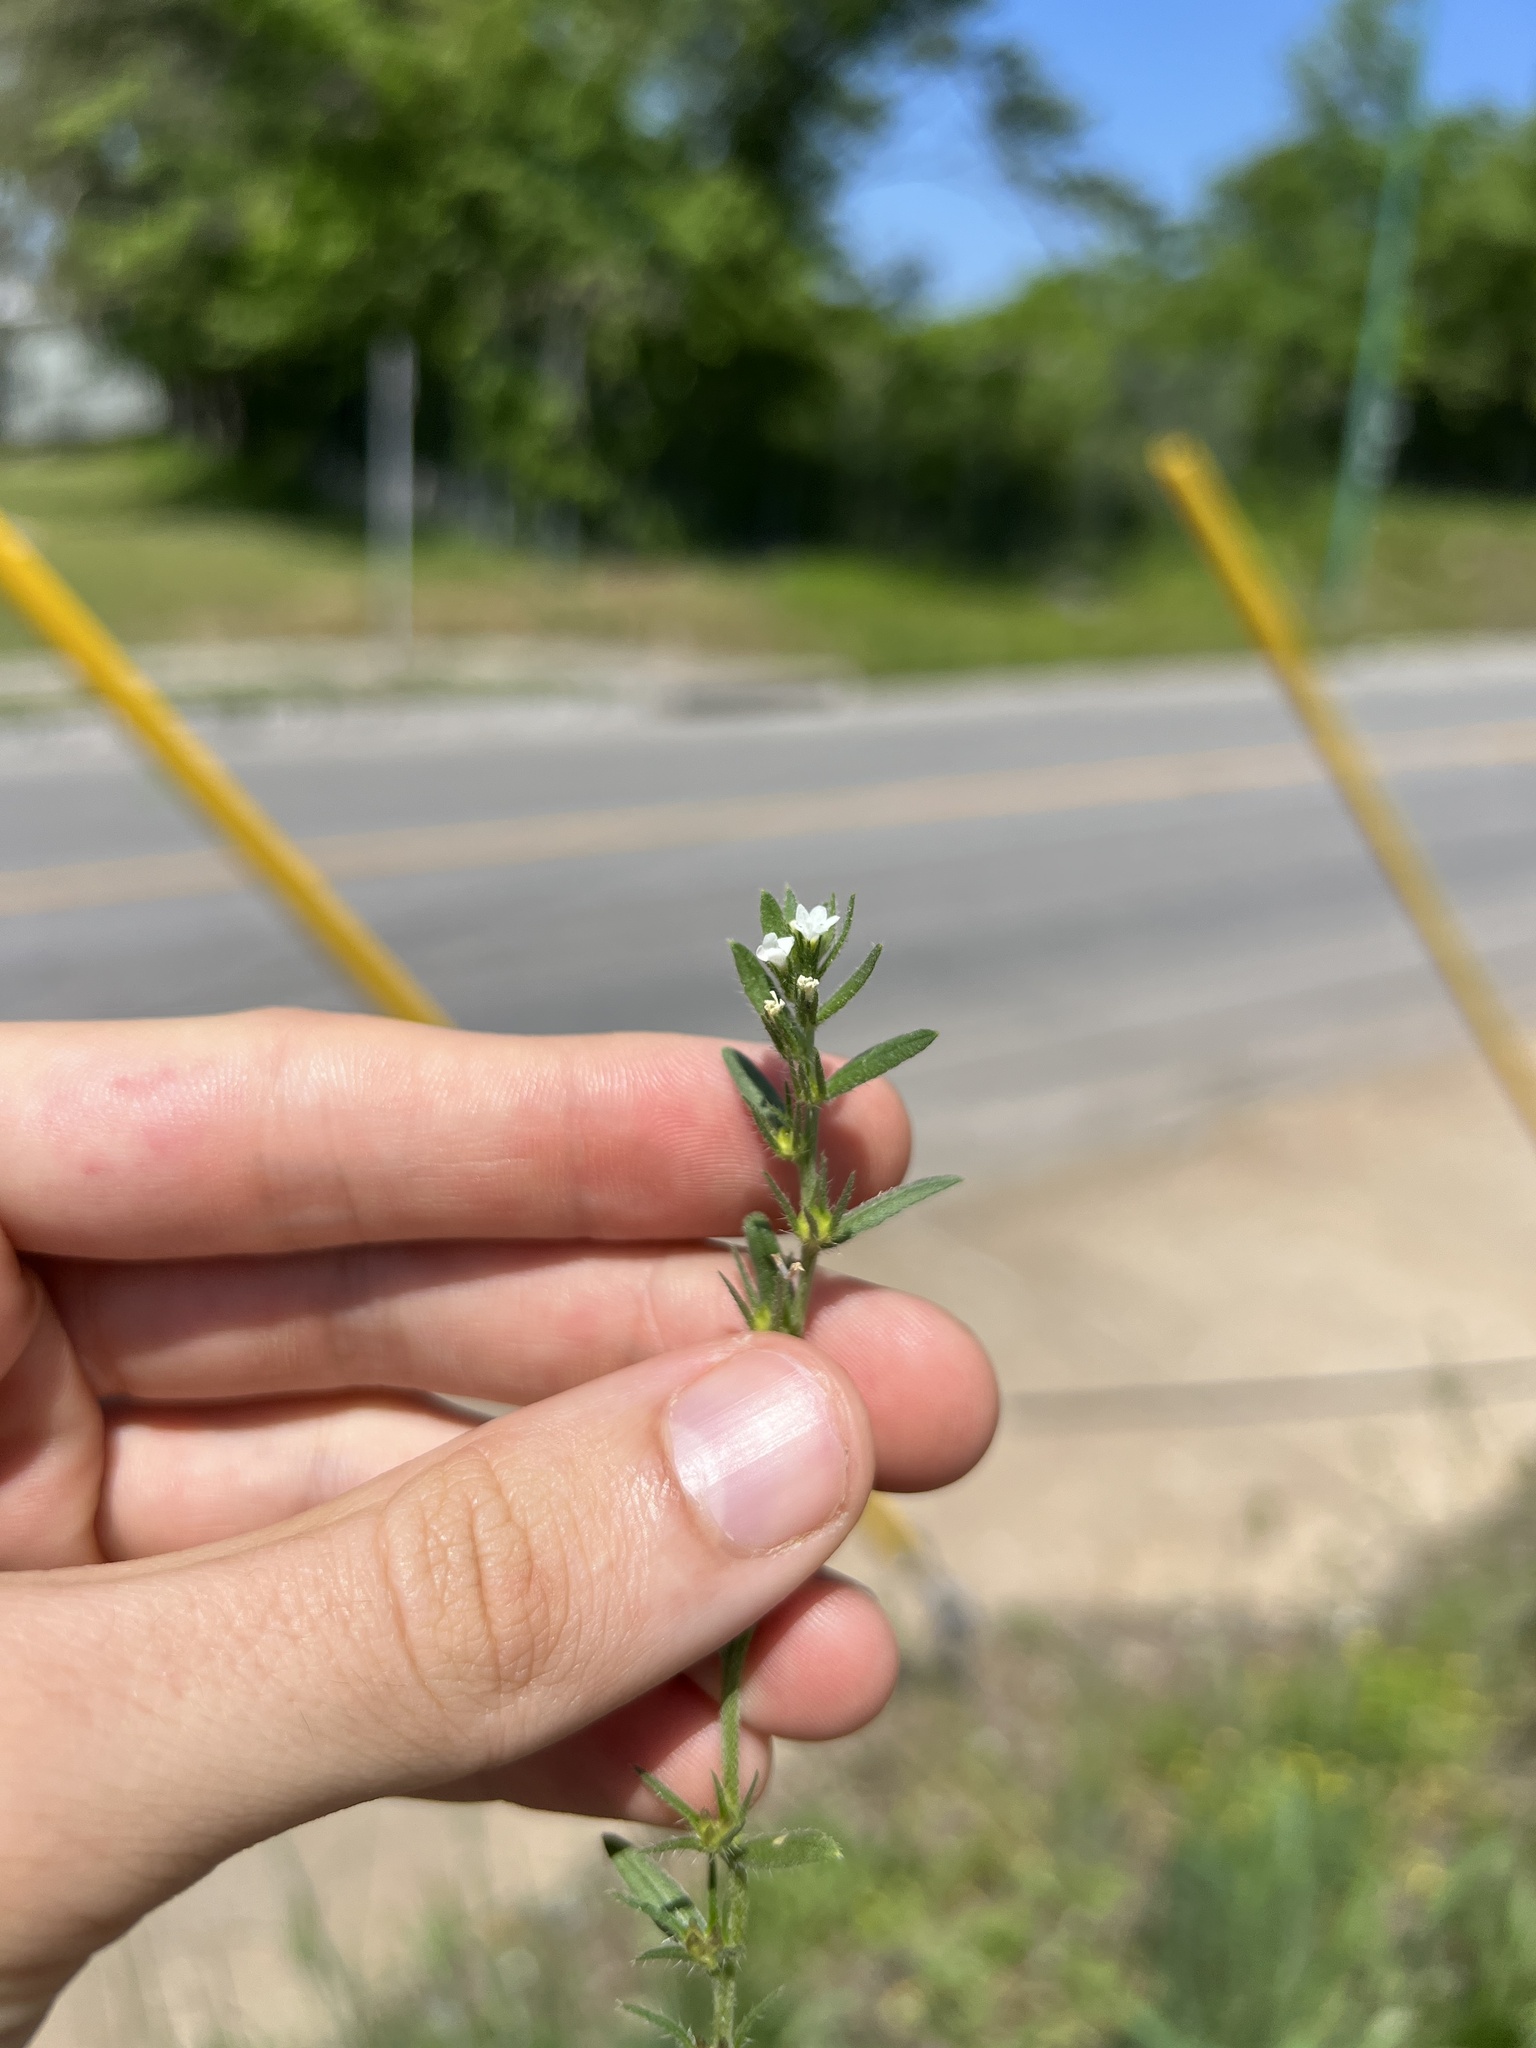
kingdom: Plantae
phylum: Tracheophyta
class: Magnoliopsida
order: Boraginales
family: Boraginaceae
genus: Buglossoides
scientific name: Buglossoides arvensis
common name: Corn gromwell
